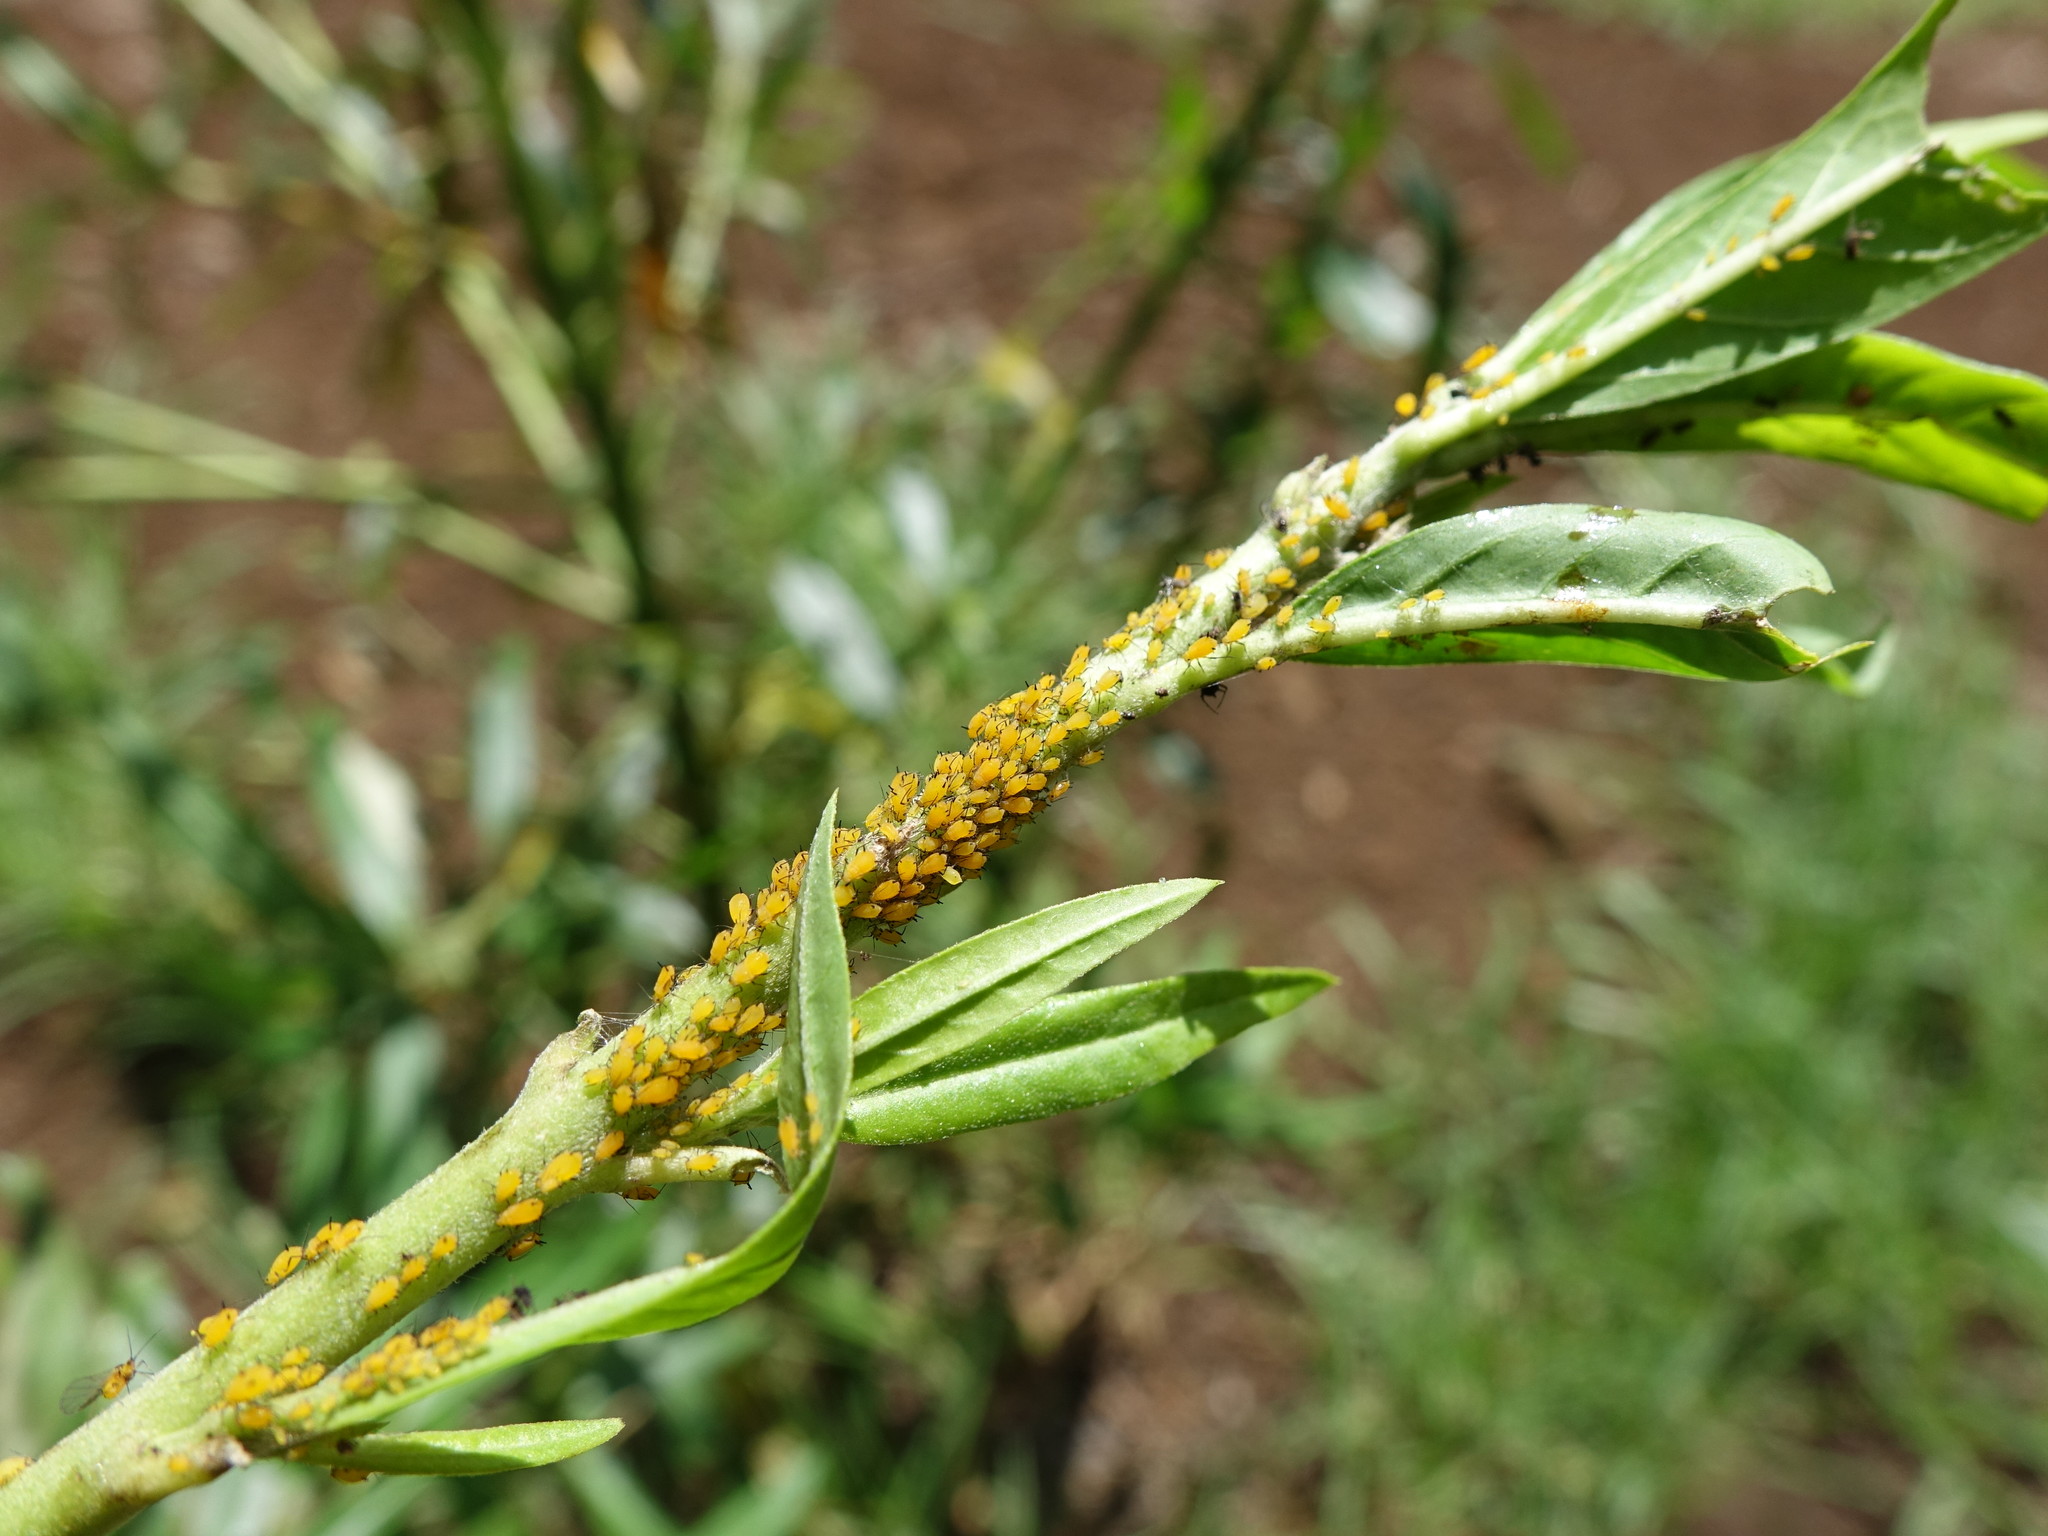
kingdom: Animalia
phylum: Arthropoda
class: Insecta
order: Hemiptera
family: Aphididae
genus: Aphis
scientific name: Aphis nerii
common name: Oleander aphid
